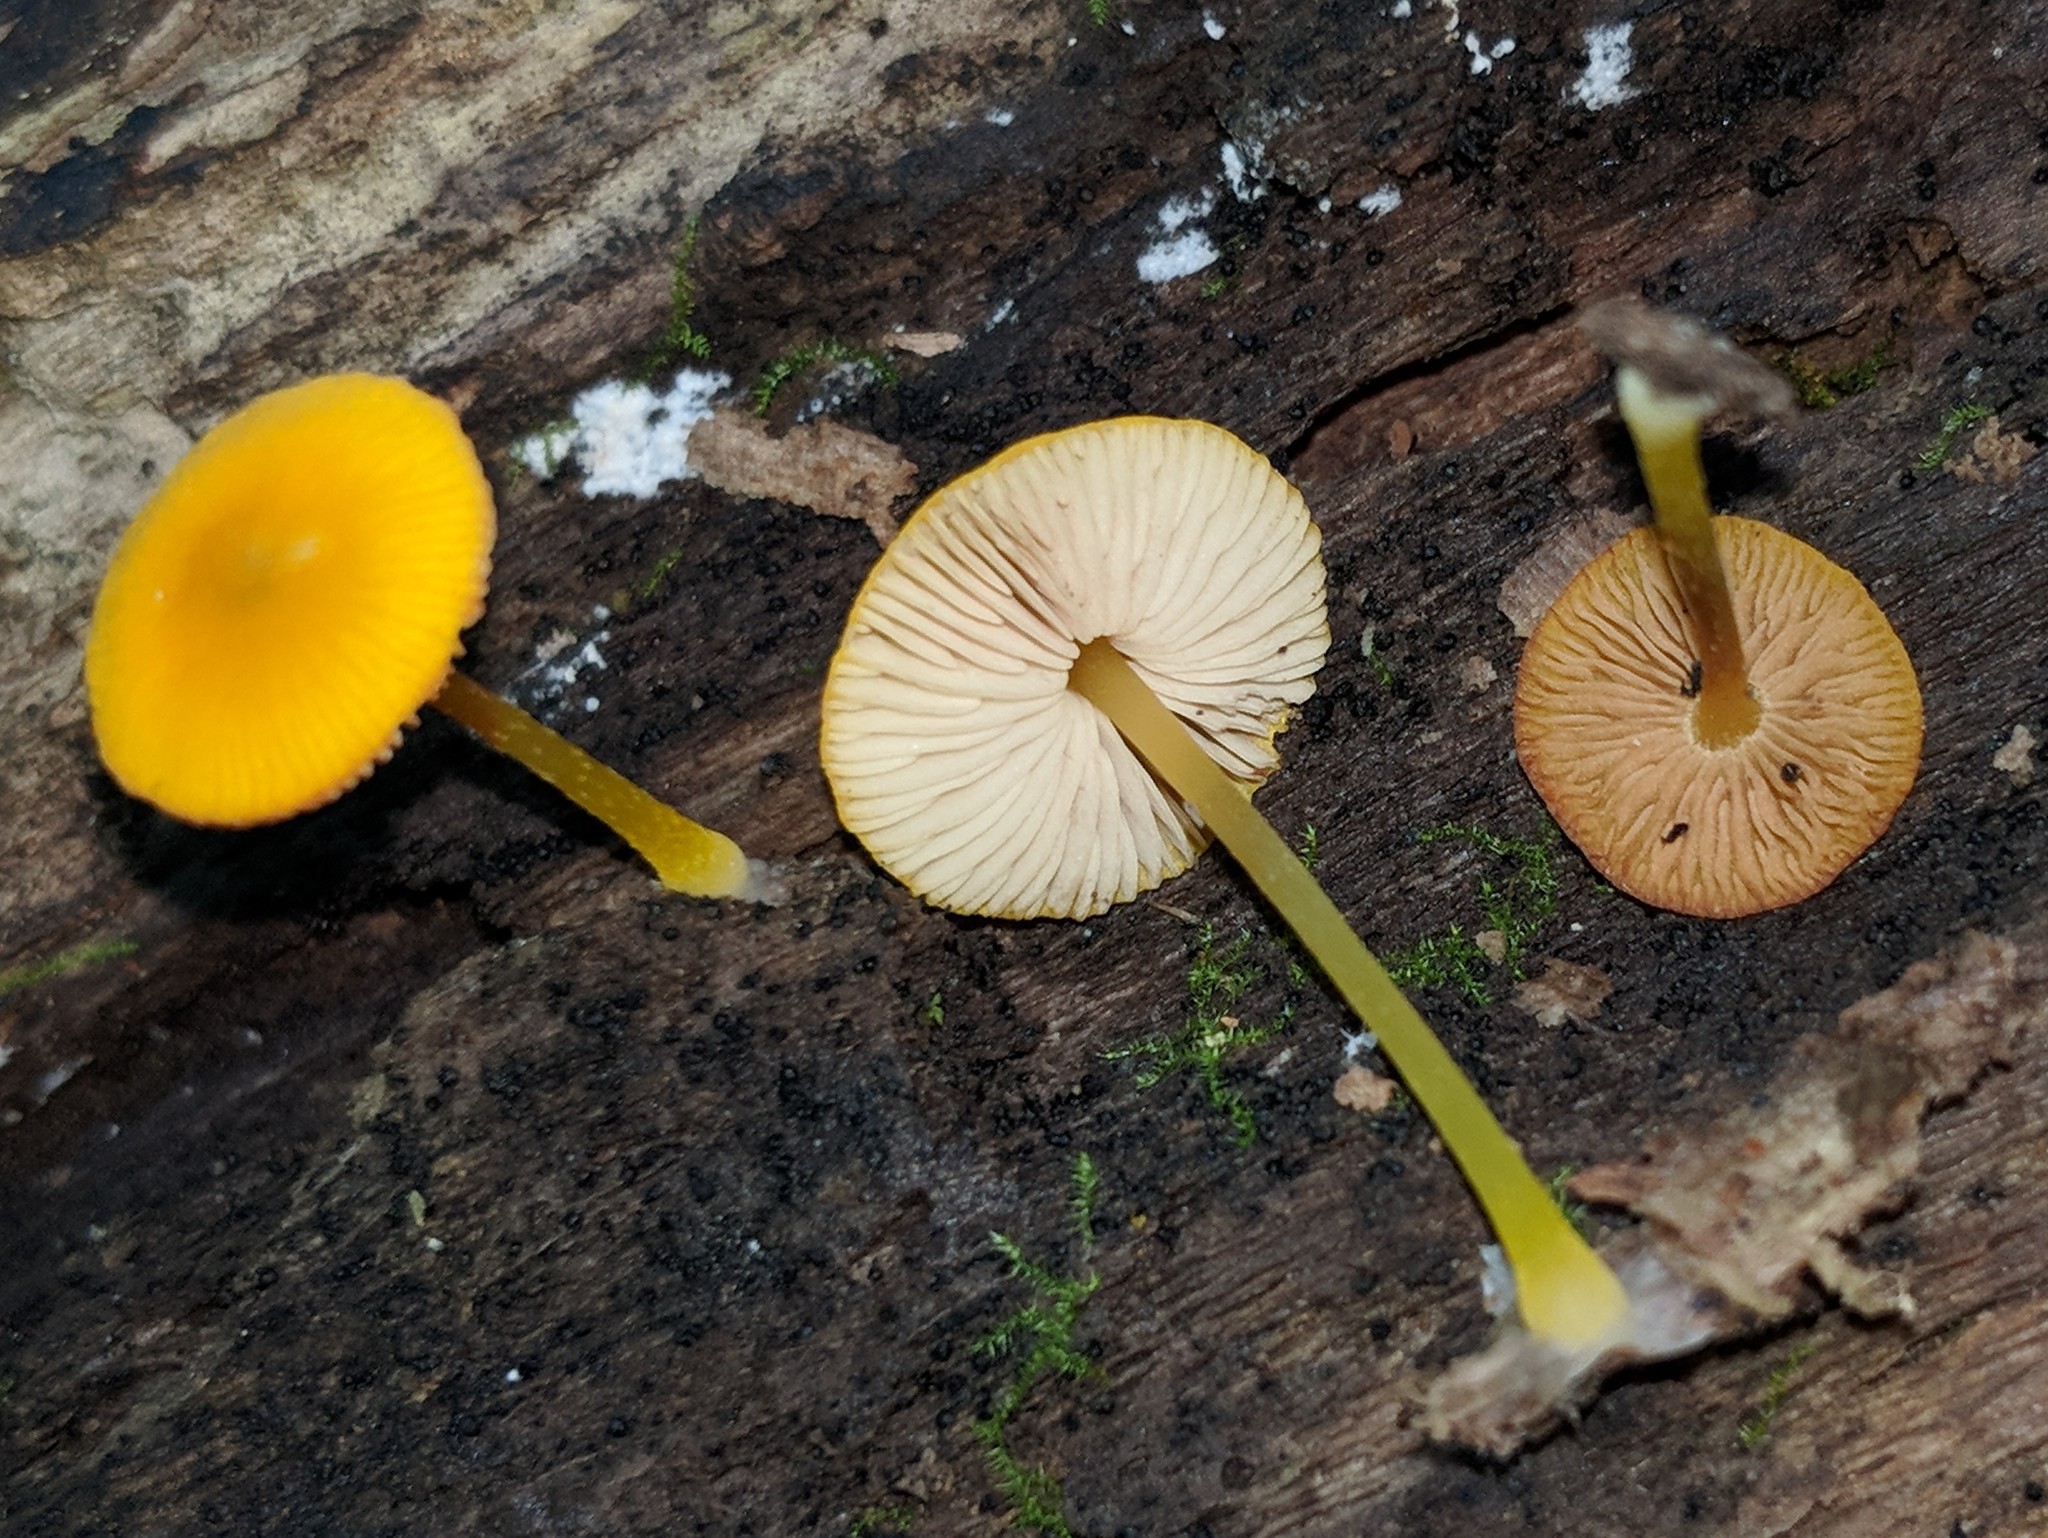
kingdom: Fungi
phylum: Basidiomycota
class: Agaricomycetes
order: Agaricales
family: Pluteaceae
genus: Pluteus
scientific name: Pluteus chrysophlebius
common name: Yellow deer mushroom
